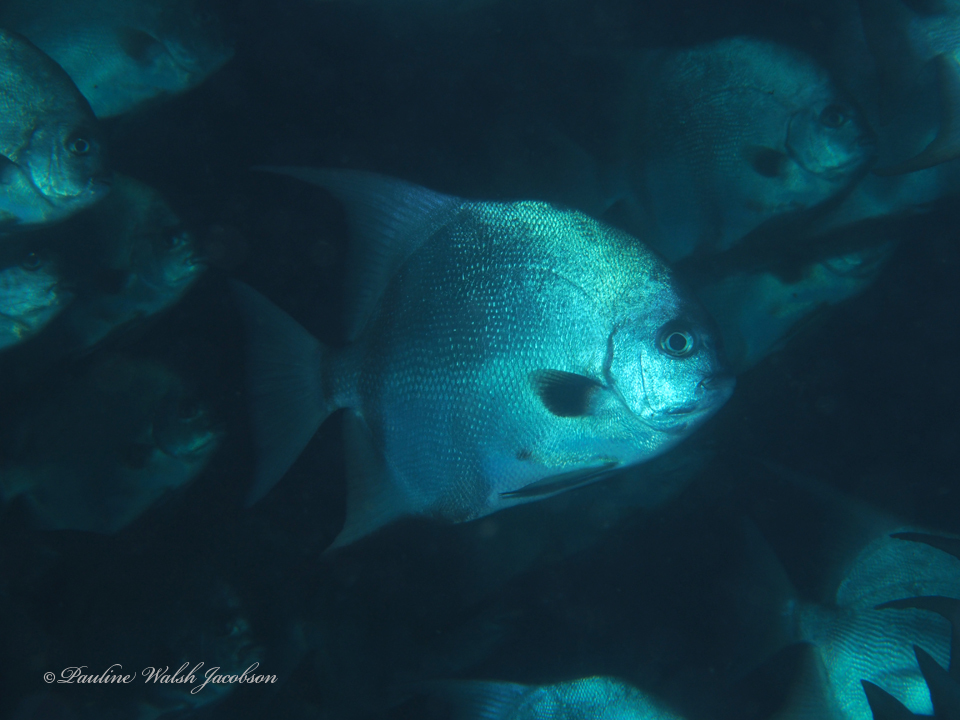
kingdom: Animalia
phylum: Chordata
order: Perciformes
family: Ephippidae
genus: Chaetodipterus
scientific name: Chaetodipterus faber
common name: Ocean cobbler
